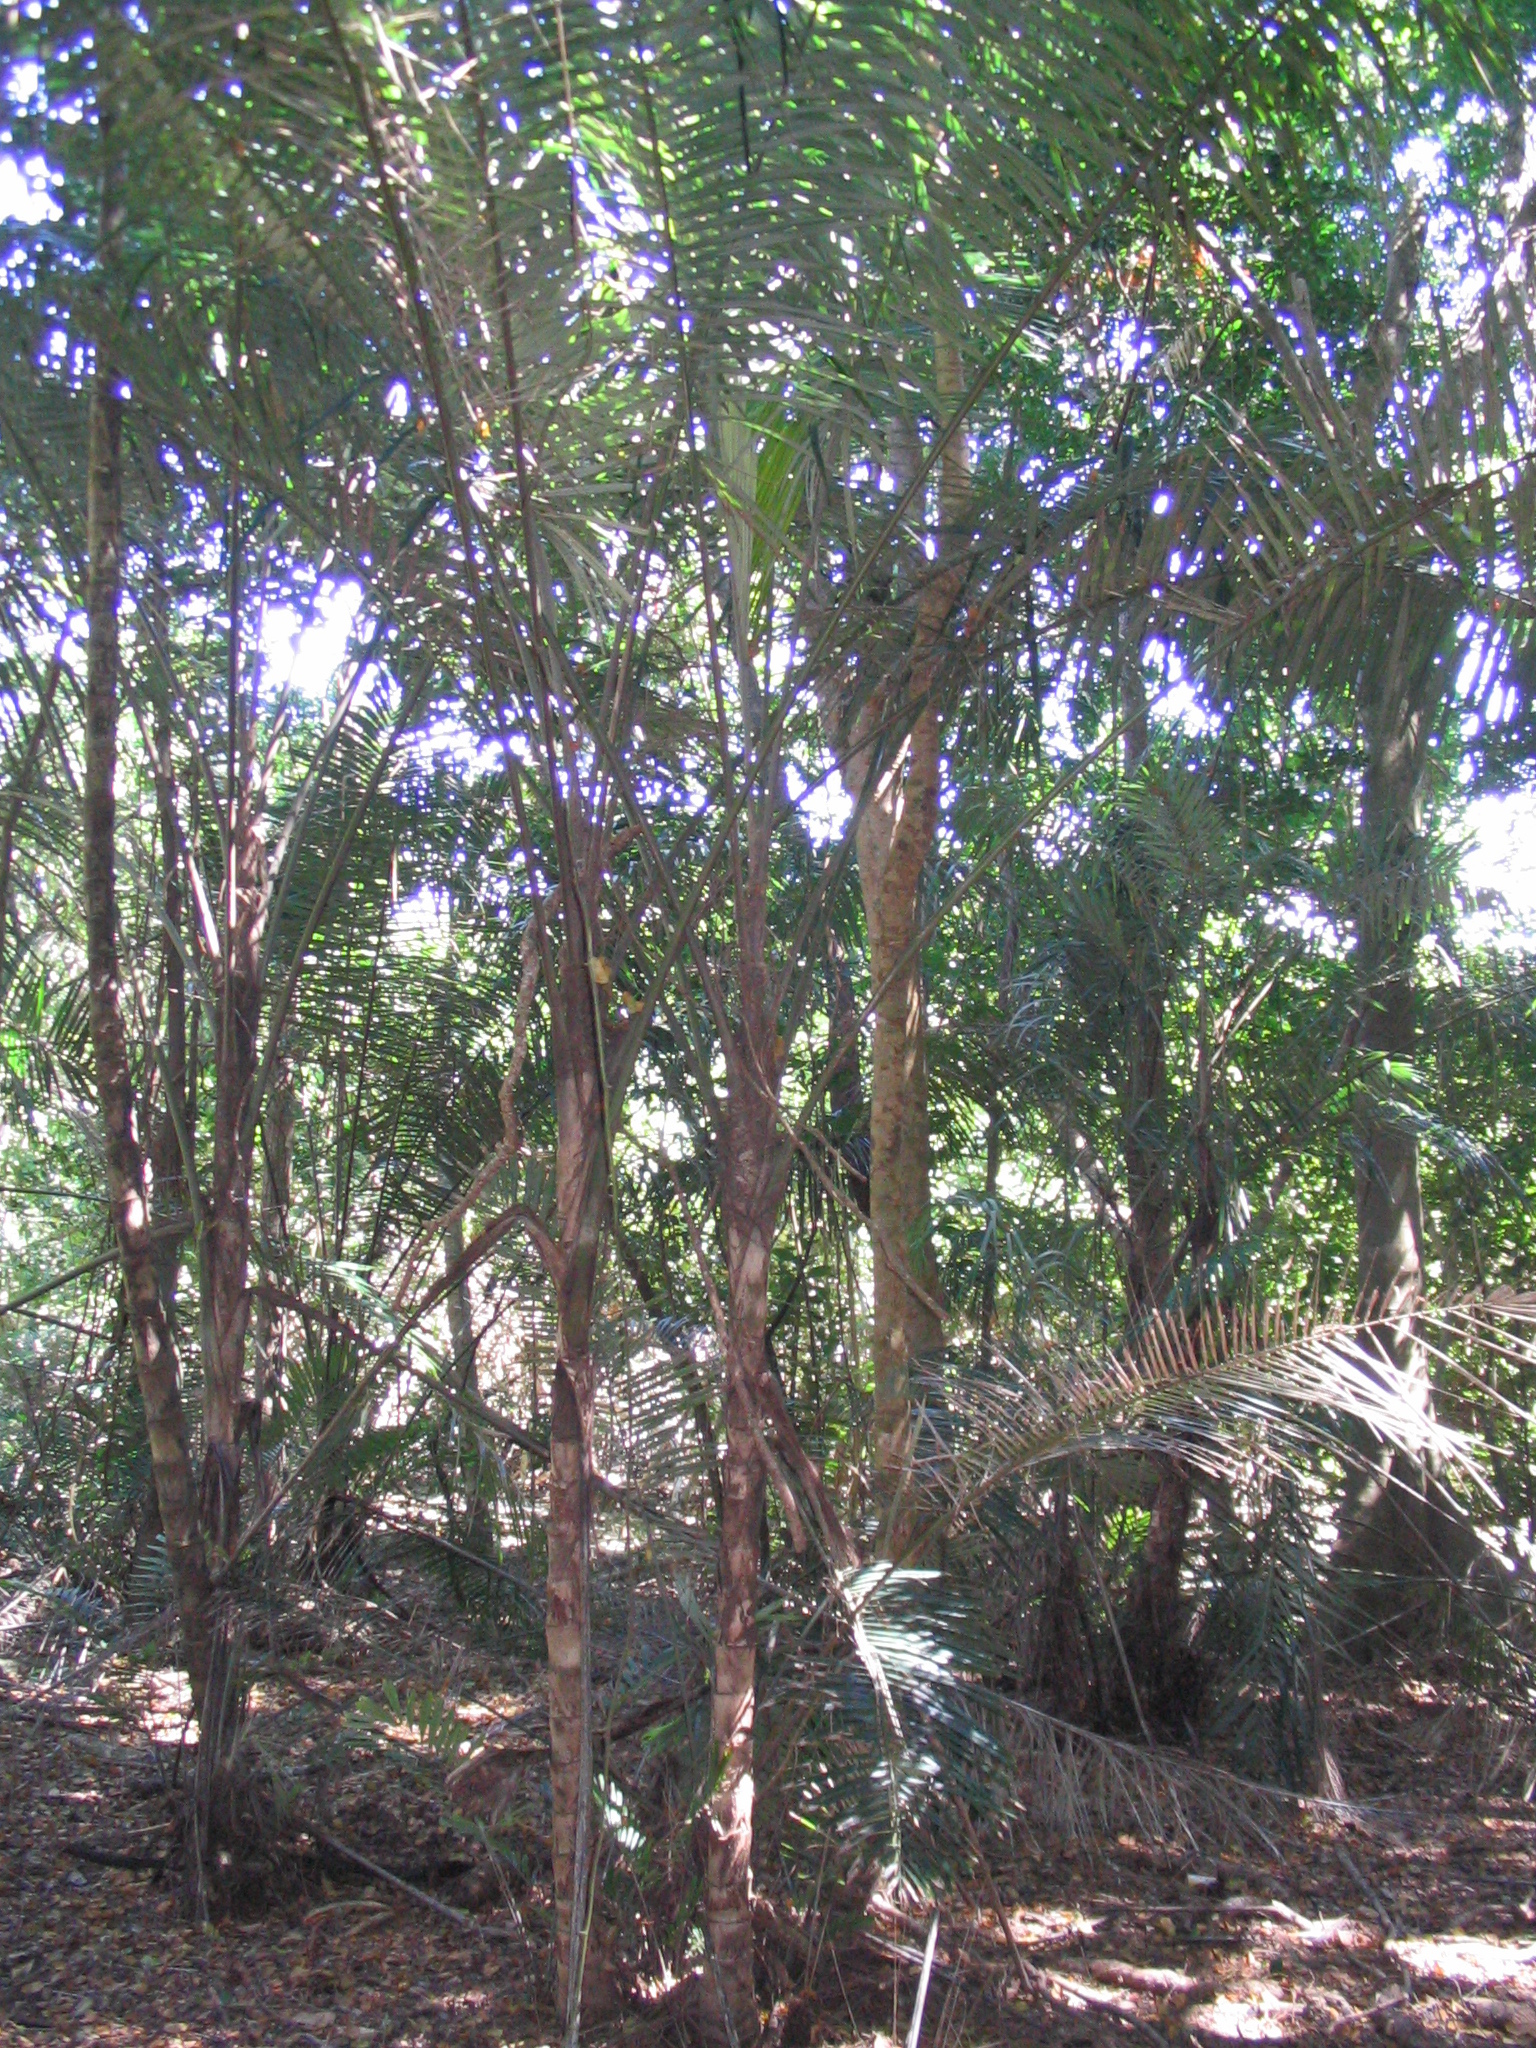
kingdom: Plantae
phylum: Tracheophyta
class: Liliopsida
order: Arecales
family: Arecaceae
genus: Arenga
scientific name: Arenga australasica
